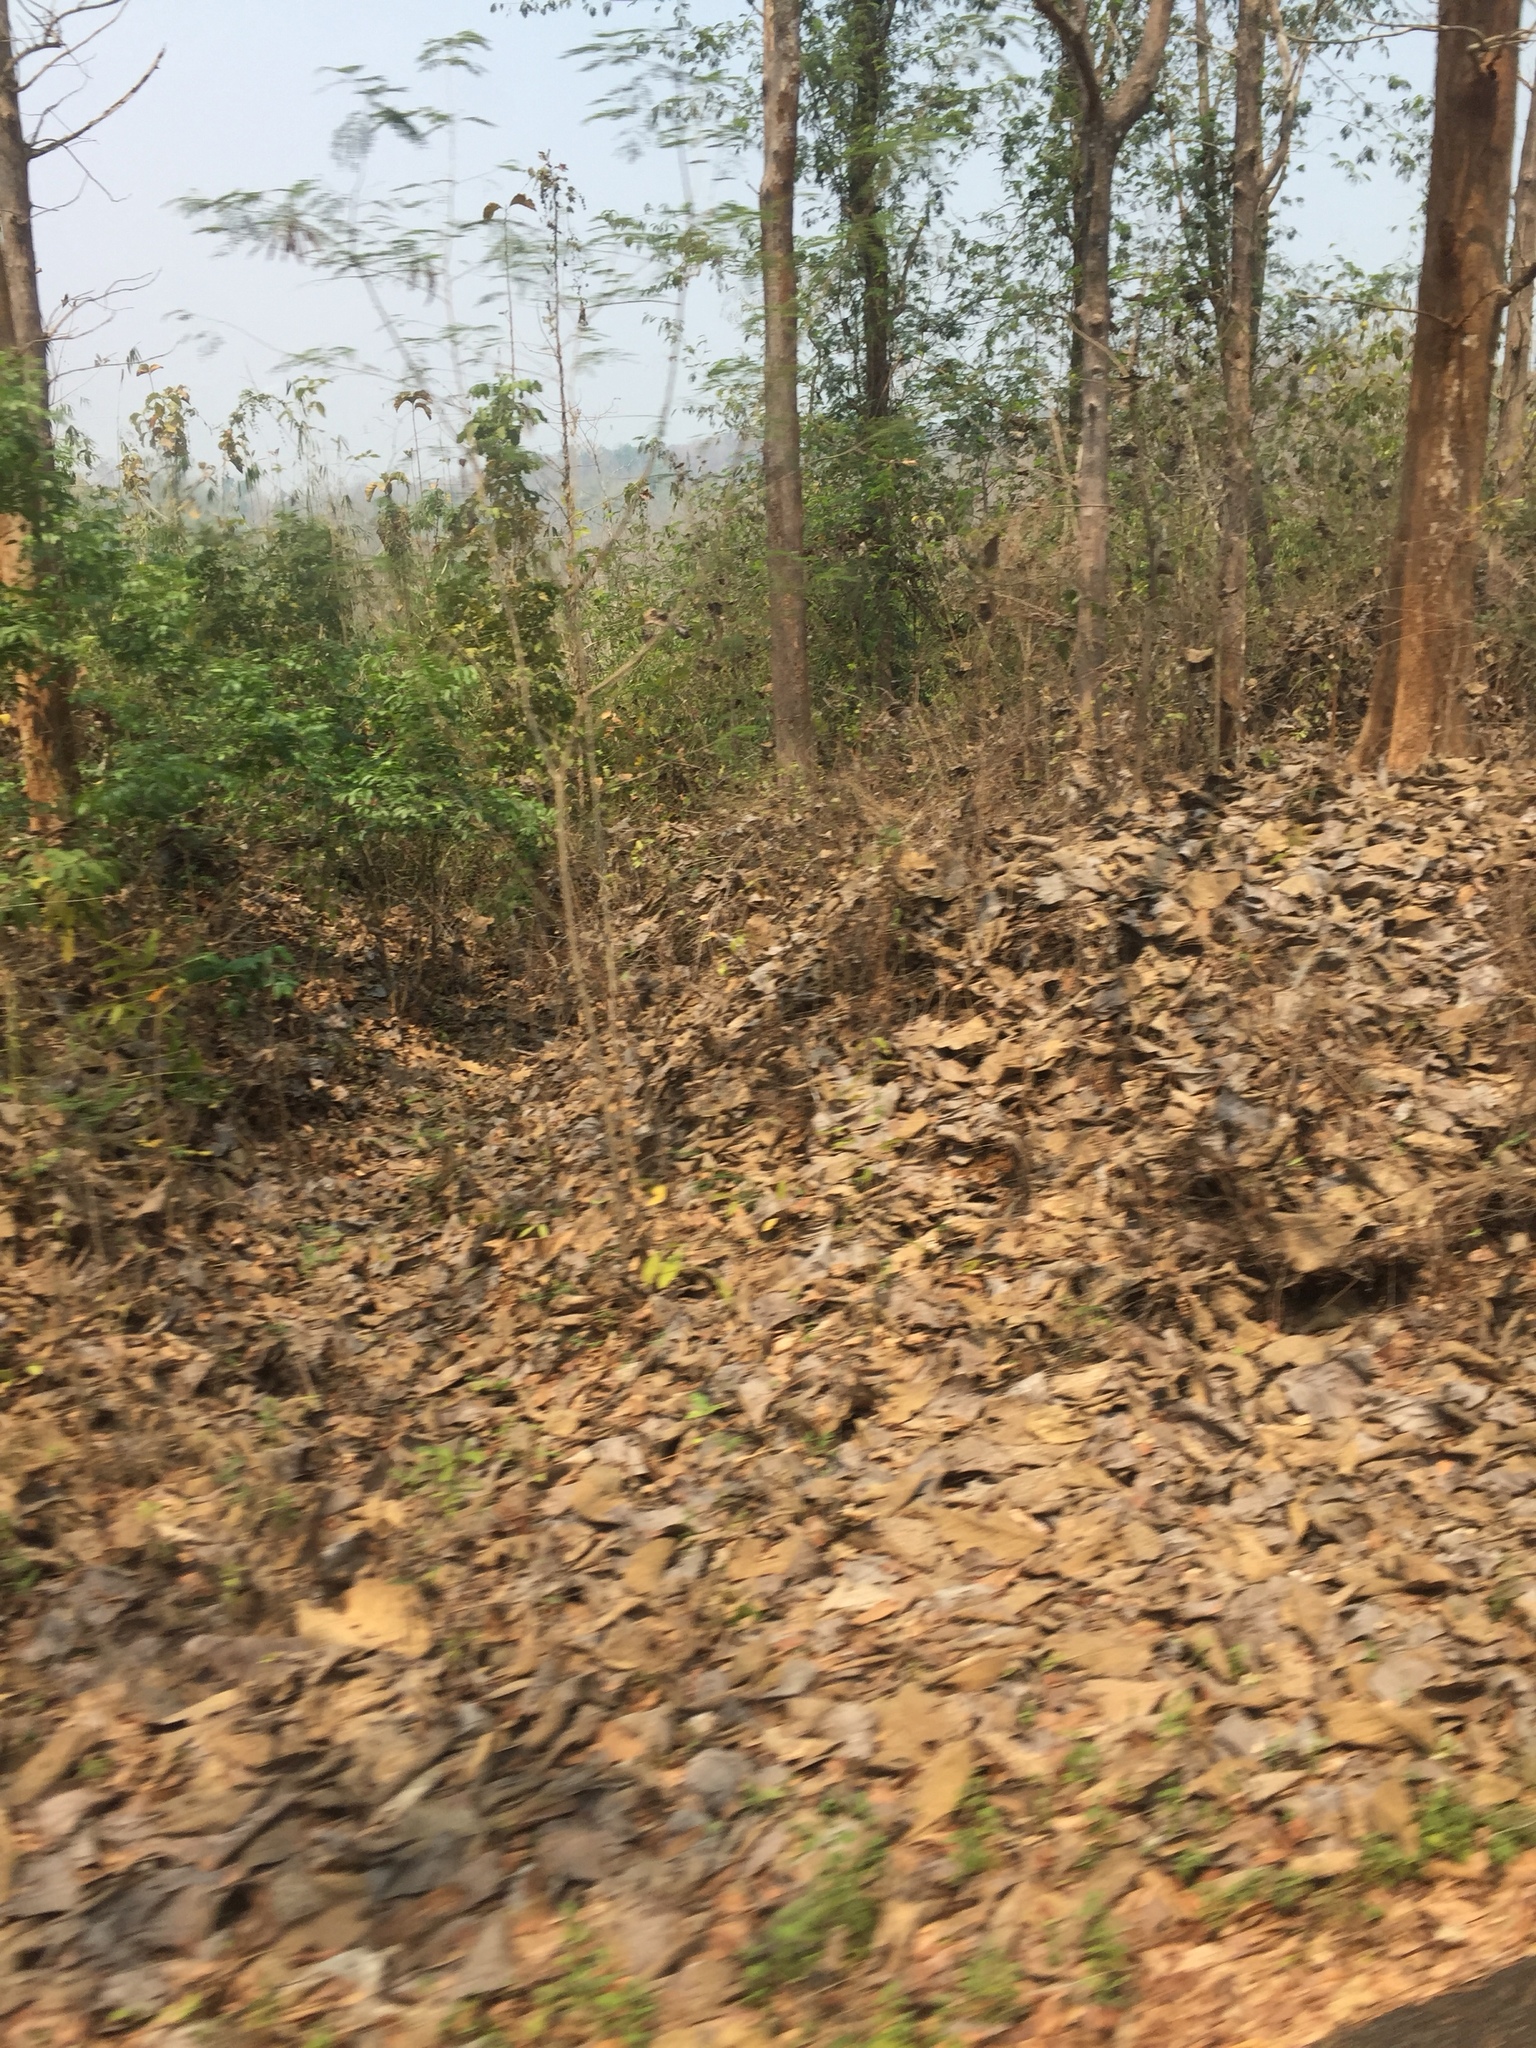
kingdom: Plantae
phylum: Tracheophyta
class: Magnoliopsida
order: Lamiales
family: Lamiaceae
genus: Tectona
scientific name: Tectona grandis
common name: Teak
